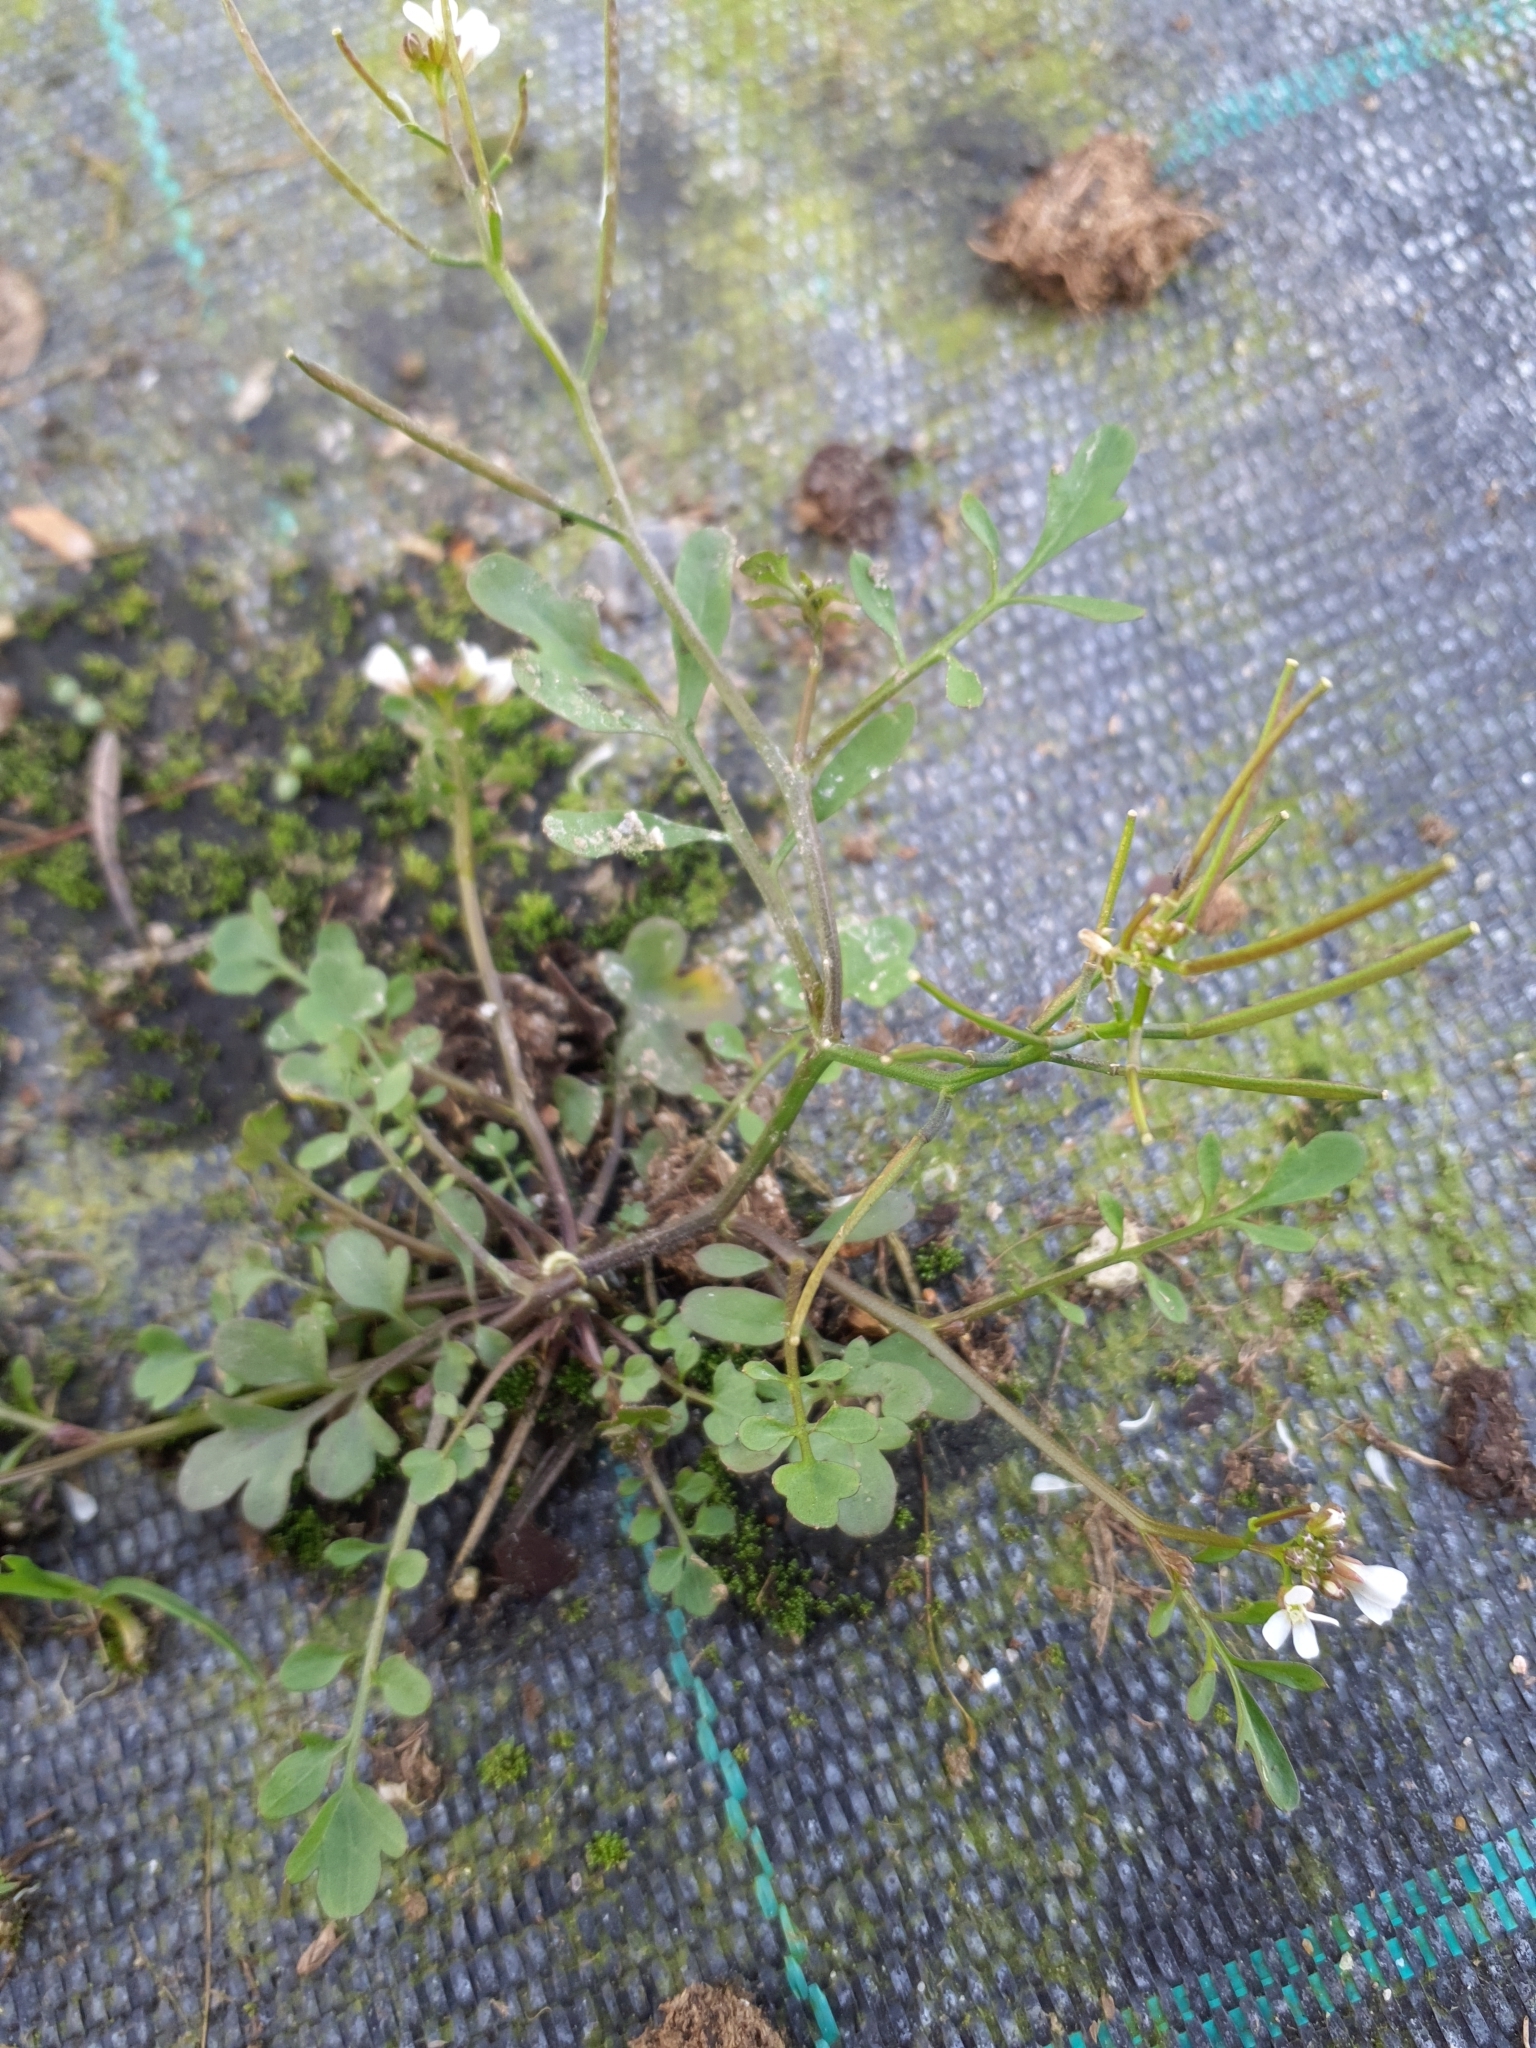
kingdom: Plantae
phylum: Tracheophyta
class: Magnoliopsida
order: Brassicales
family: Brassicaceae
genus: Cardamine
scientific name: Cardamine occulta
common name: Asian wavy bittercress
